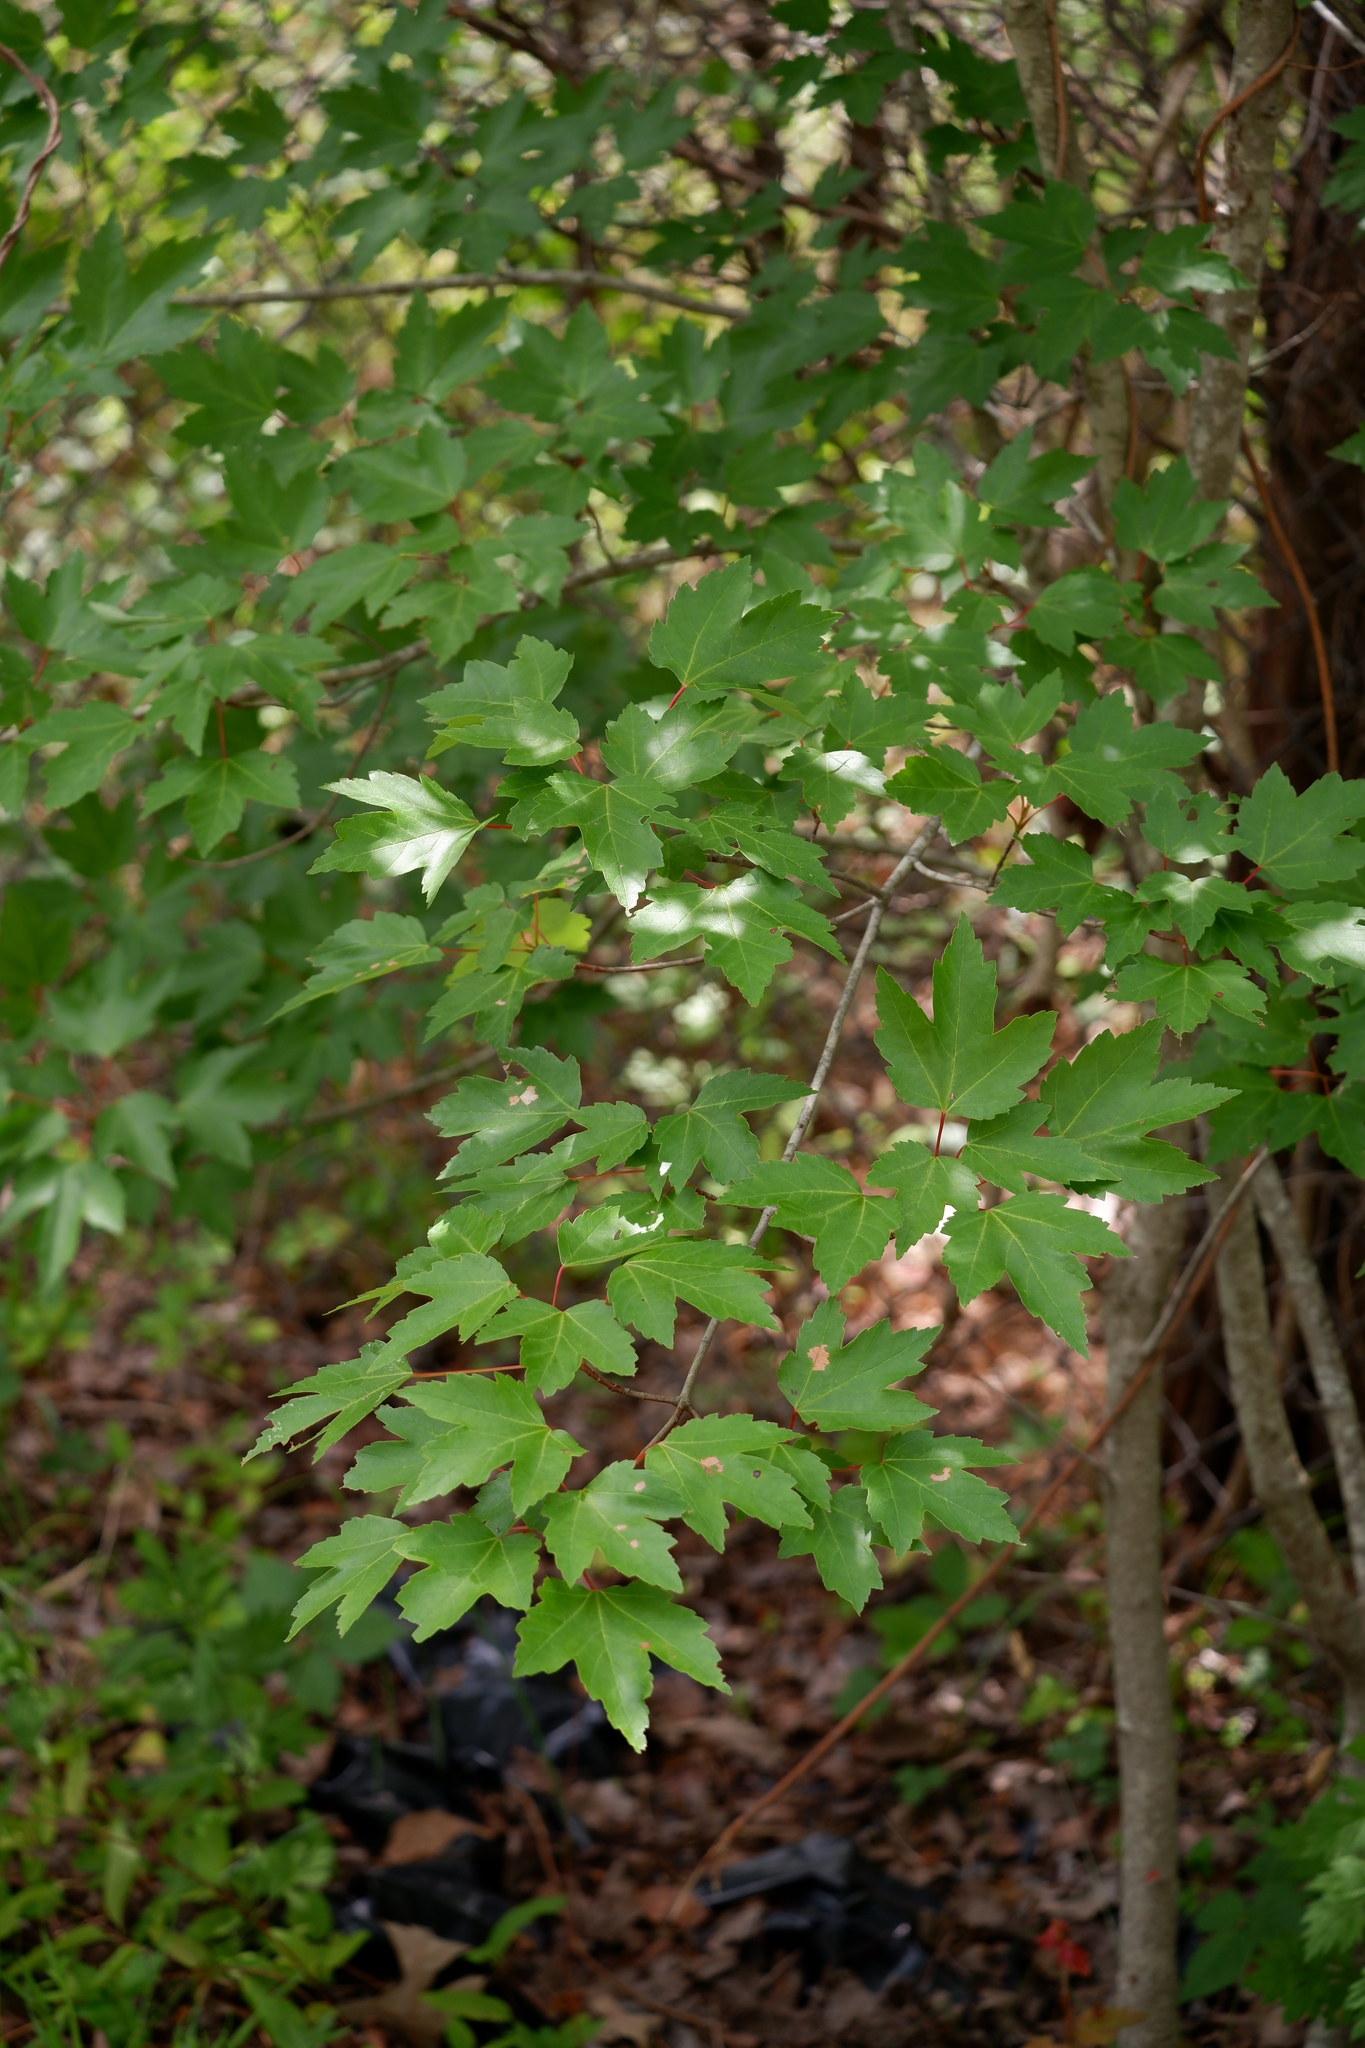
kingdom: Plantae
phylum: Tracheophyta
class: Magnoliopsida
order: Sapindales
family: Sapindaceae
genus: Acer
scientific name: Acer rubrum
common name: Red maple
